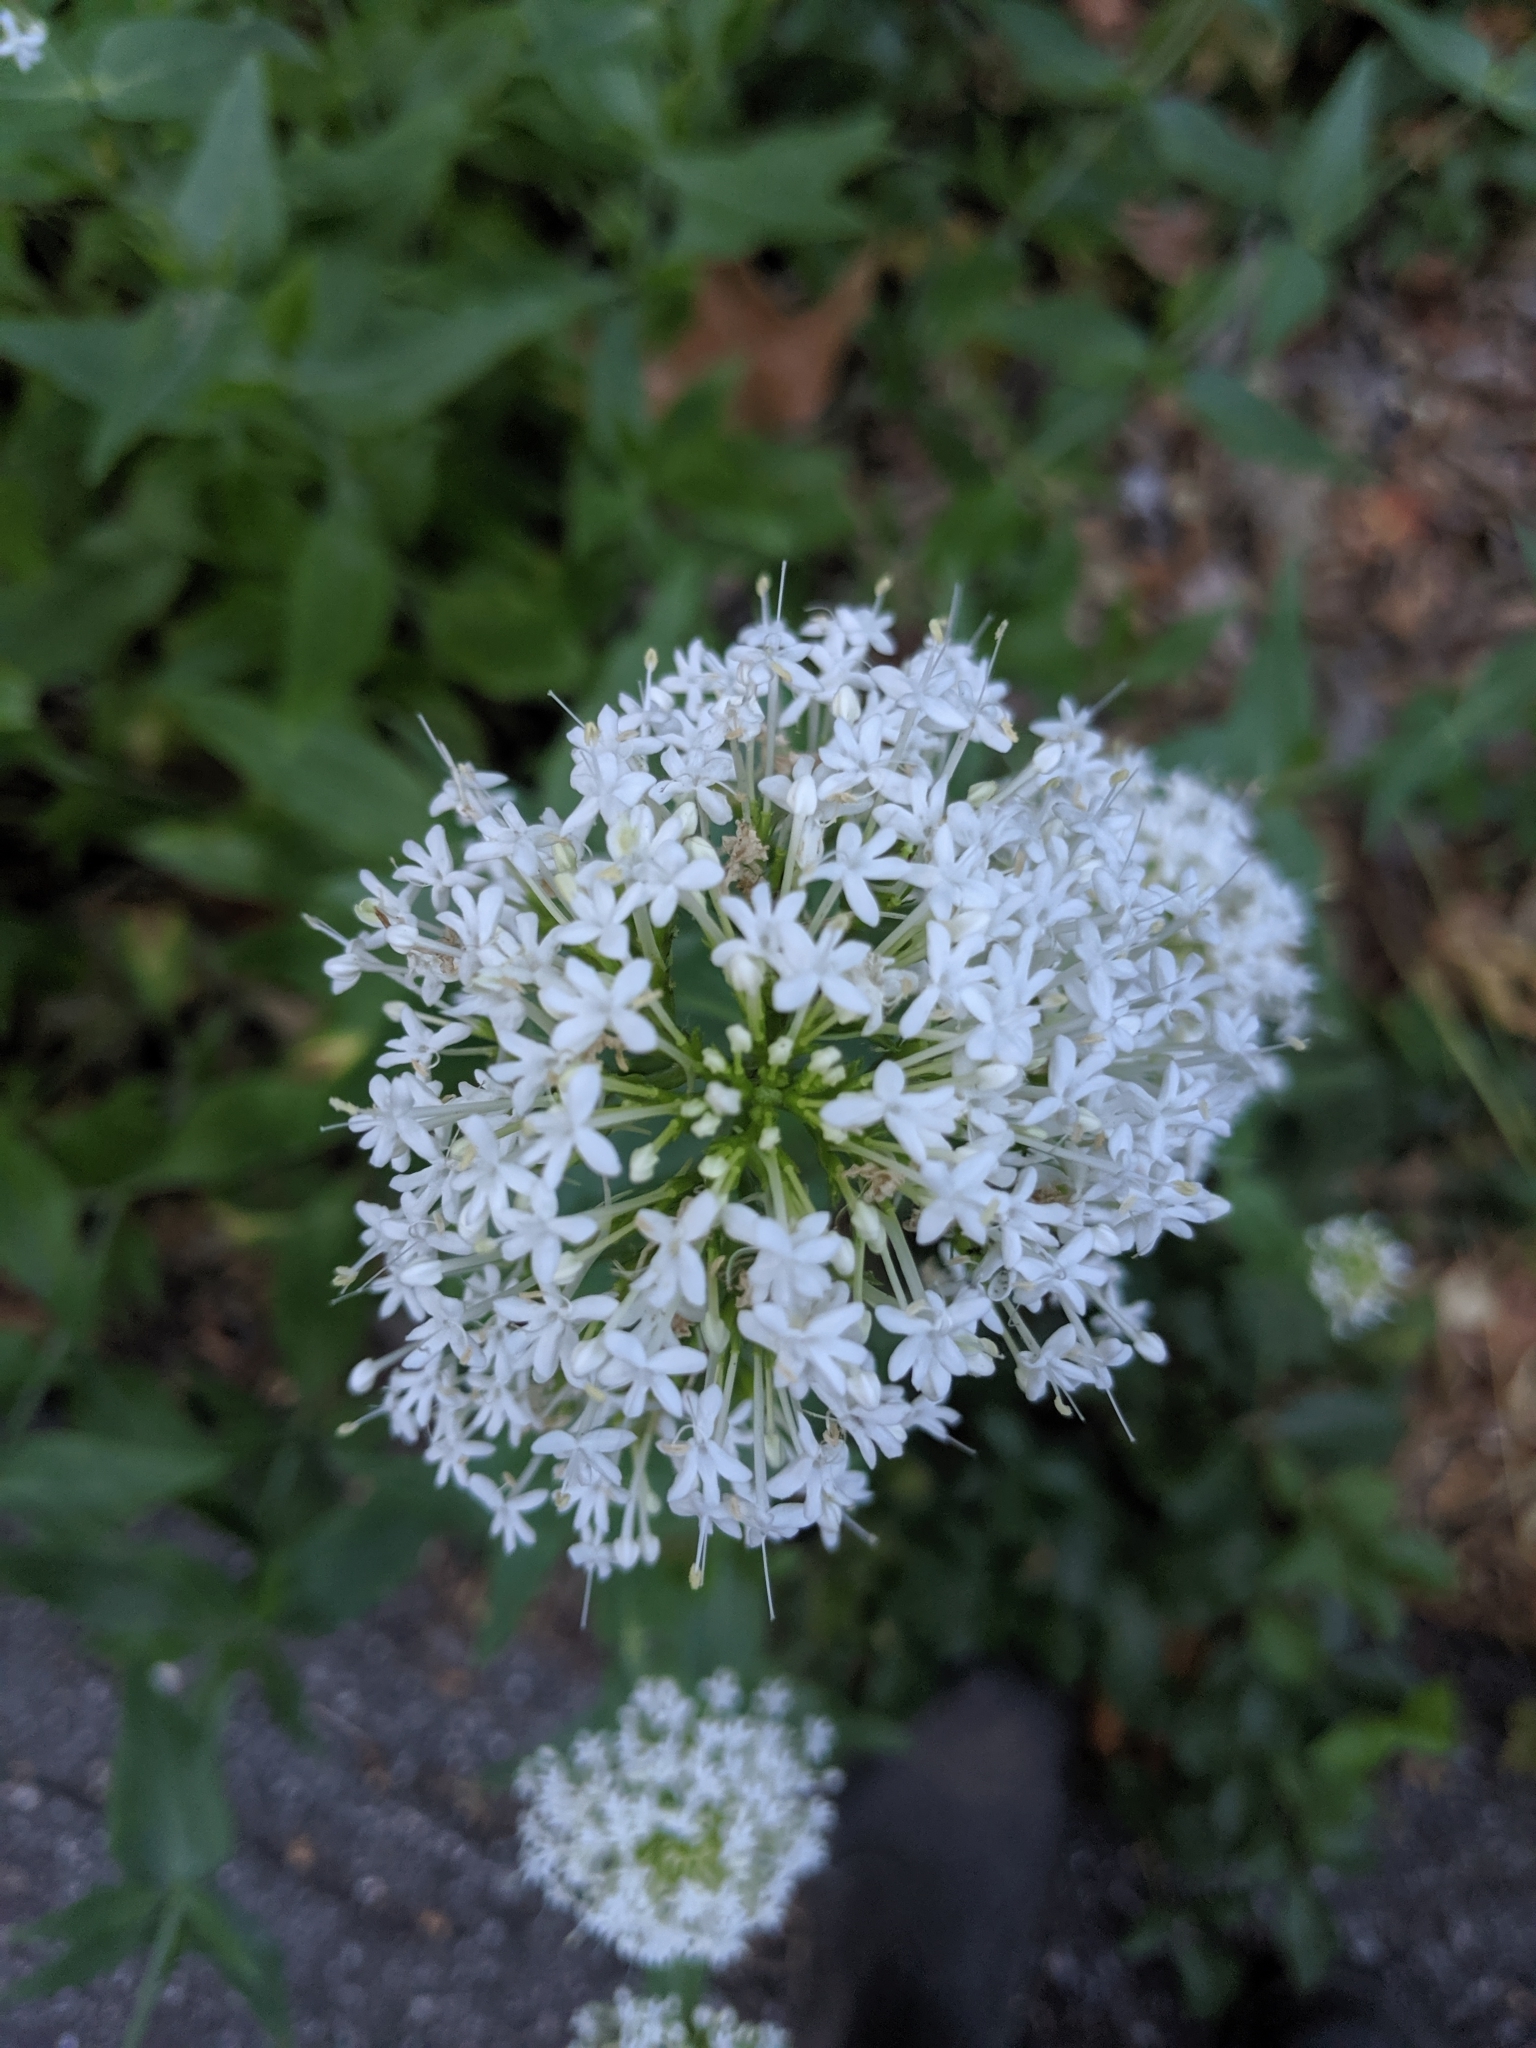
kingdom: Plantae
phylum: Tracheophyta
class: Magnoliopsida
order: Dipsacales
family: Caprifoliaceae
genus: Centranthus
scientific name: Centranthus ruber
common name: Red valerian
